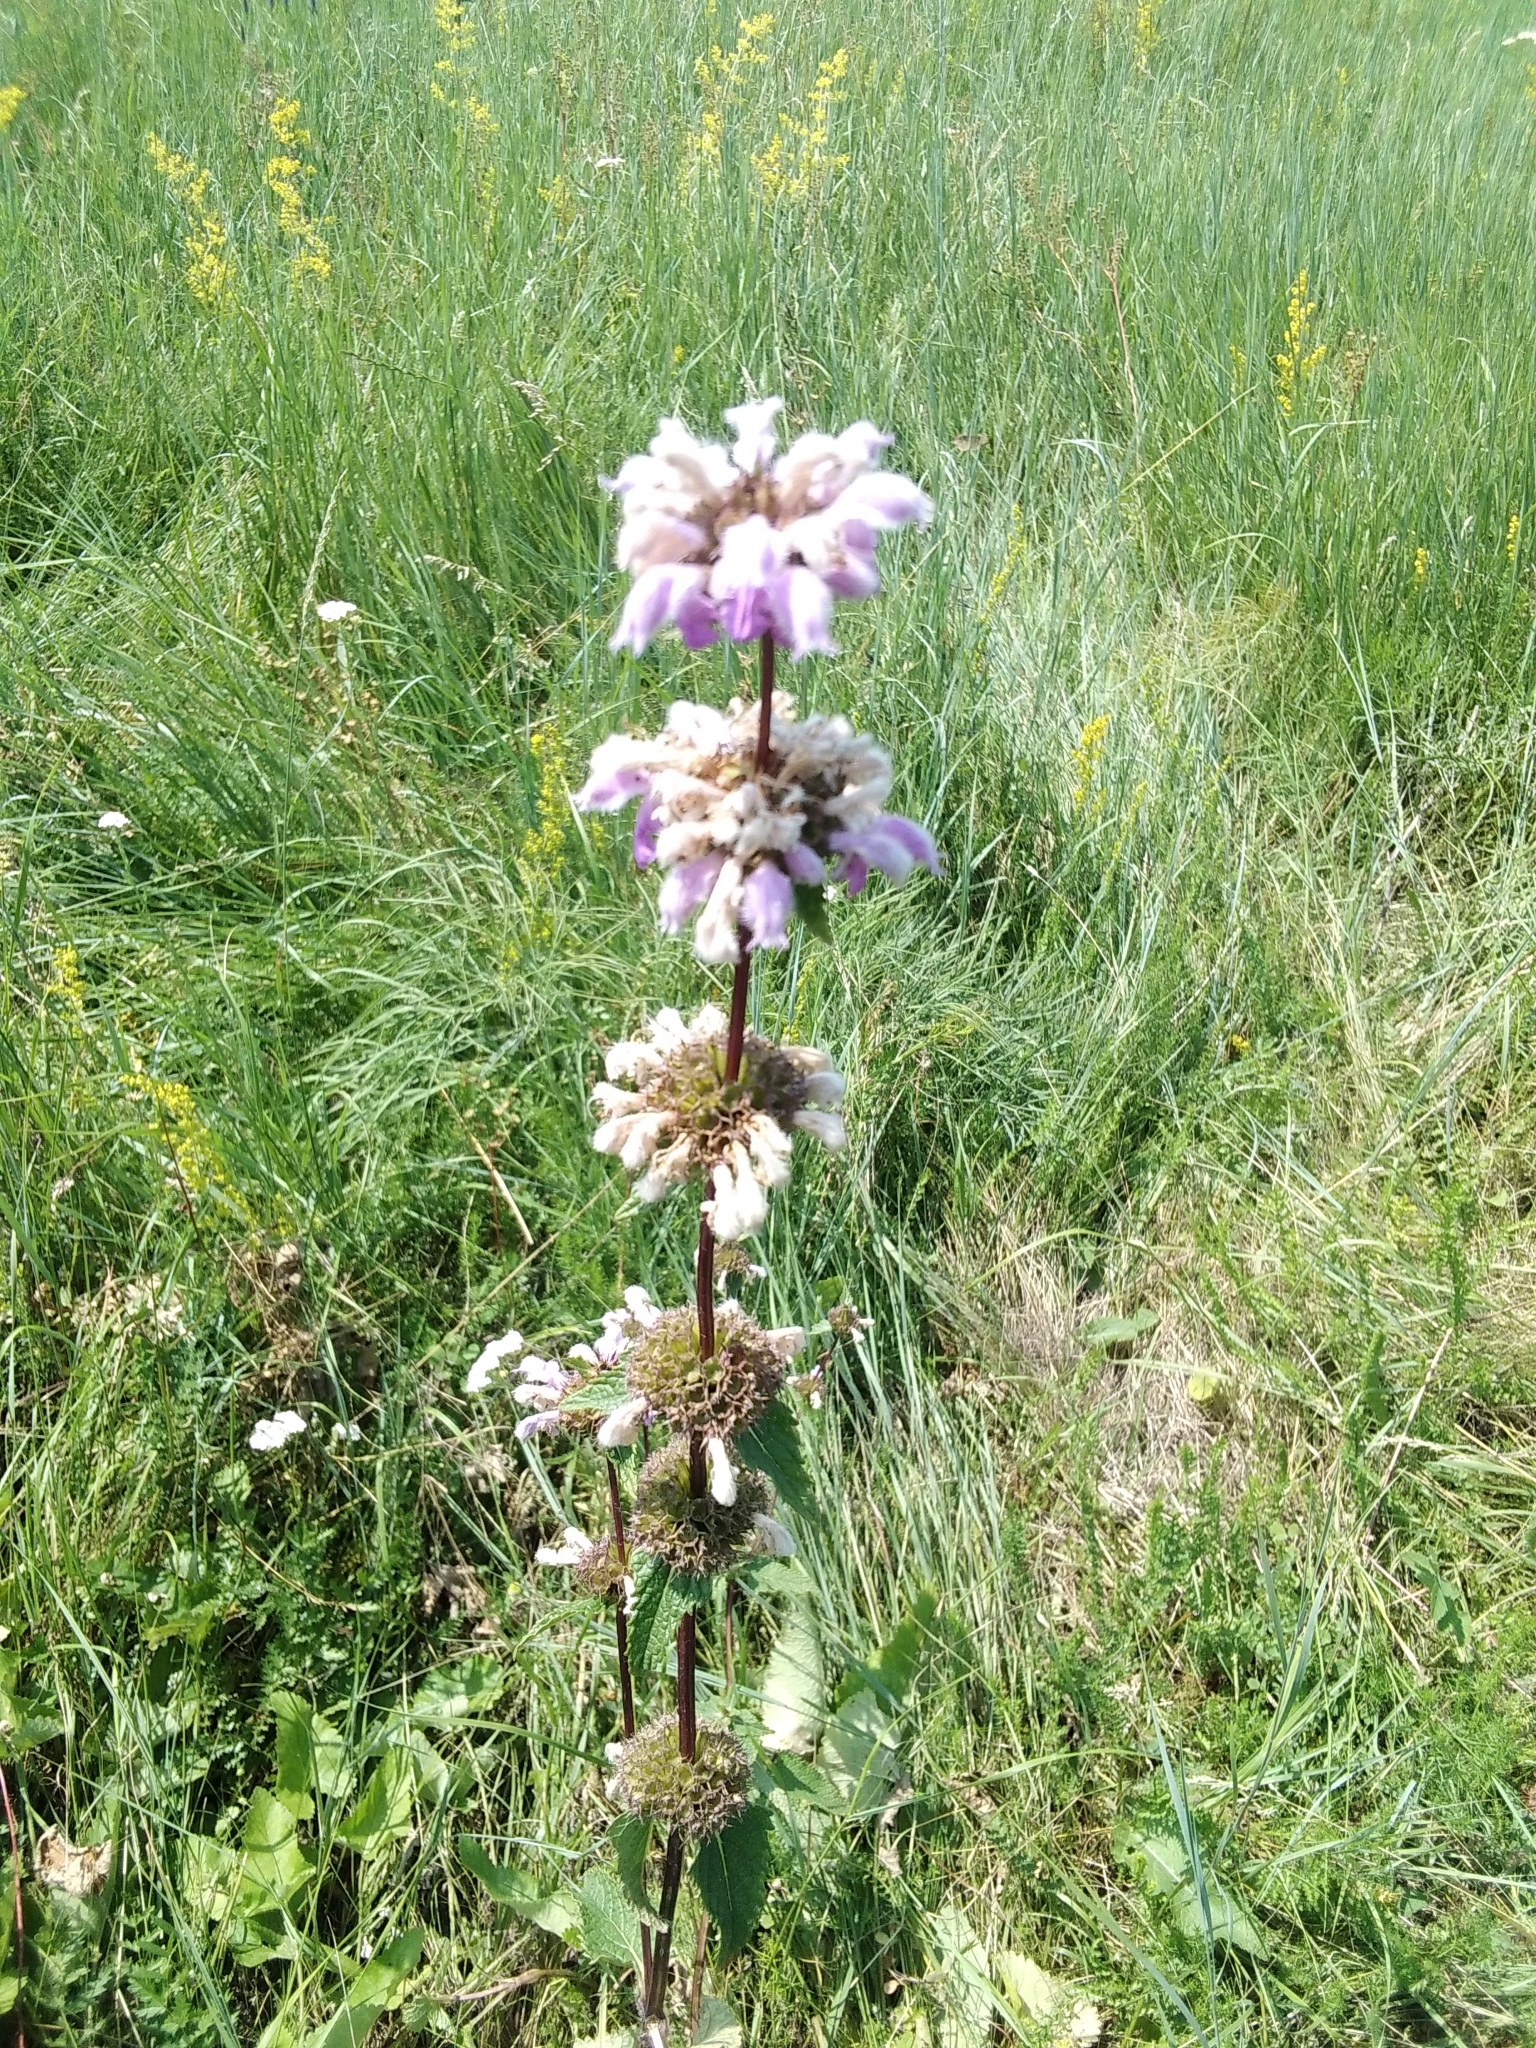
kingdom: Plantae
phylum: Tracheophyta
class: Magnoliopsida
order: Lamiales
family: Lamiaceae
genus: Phlomoides
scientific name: Phlomoides tuberosa
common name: Tuberous jerusalem sage
